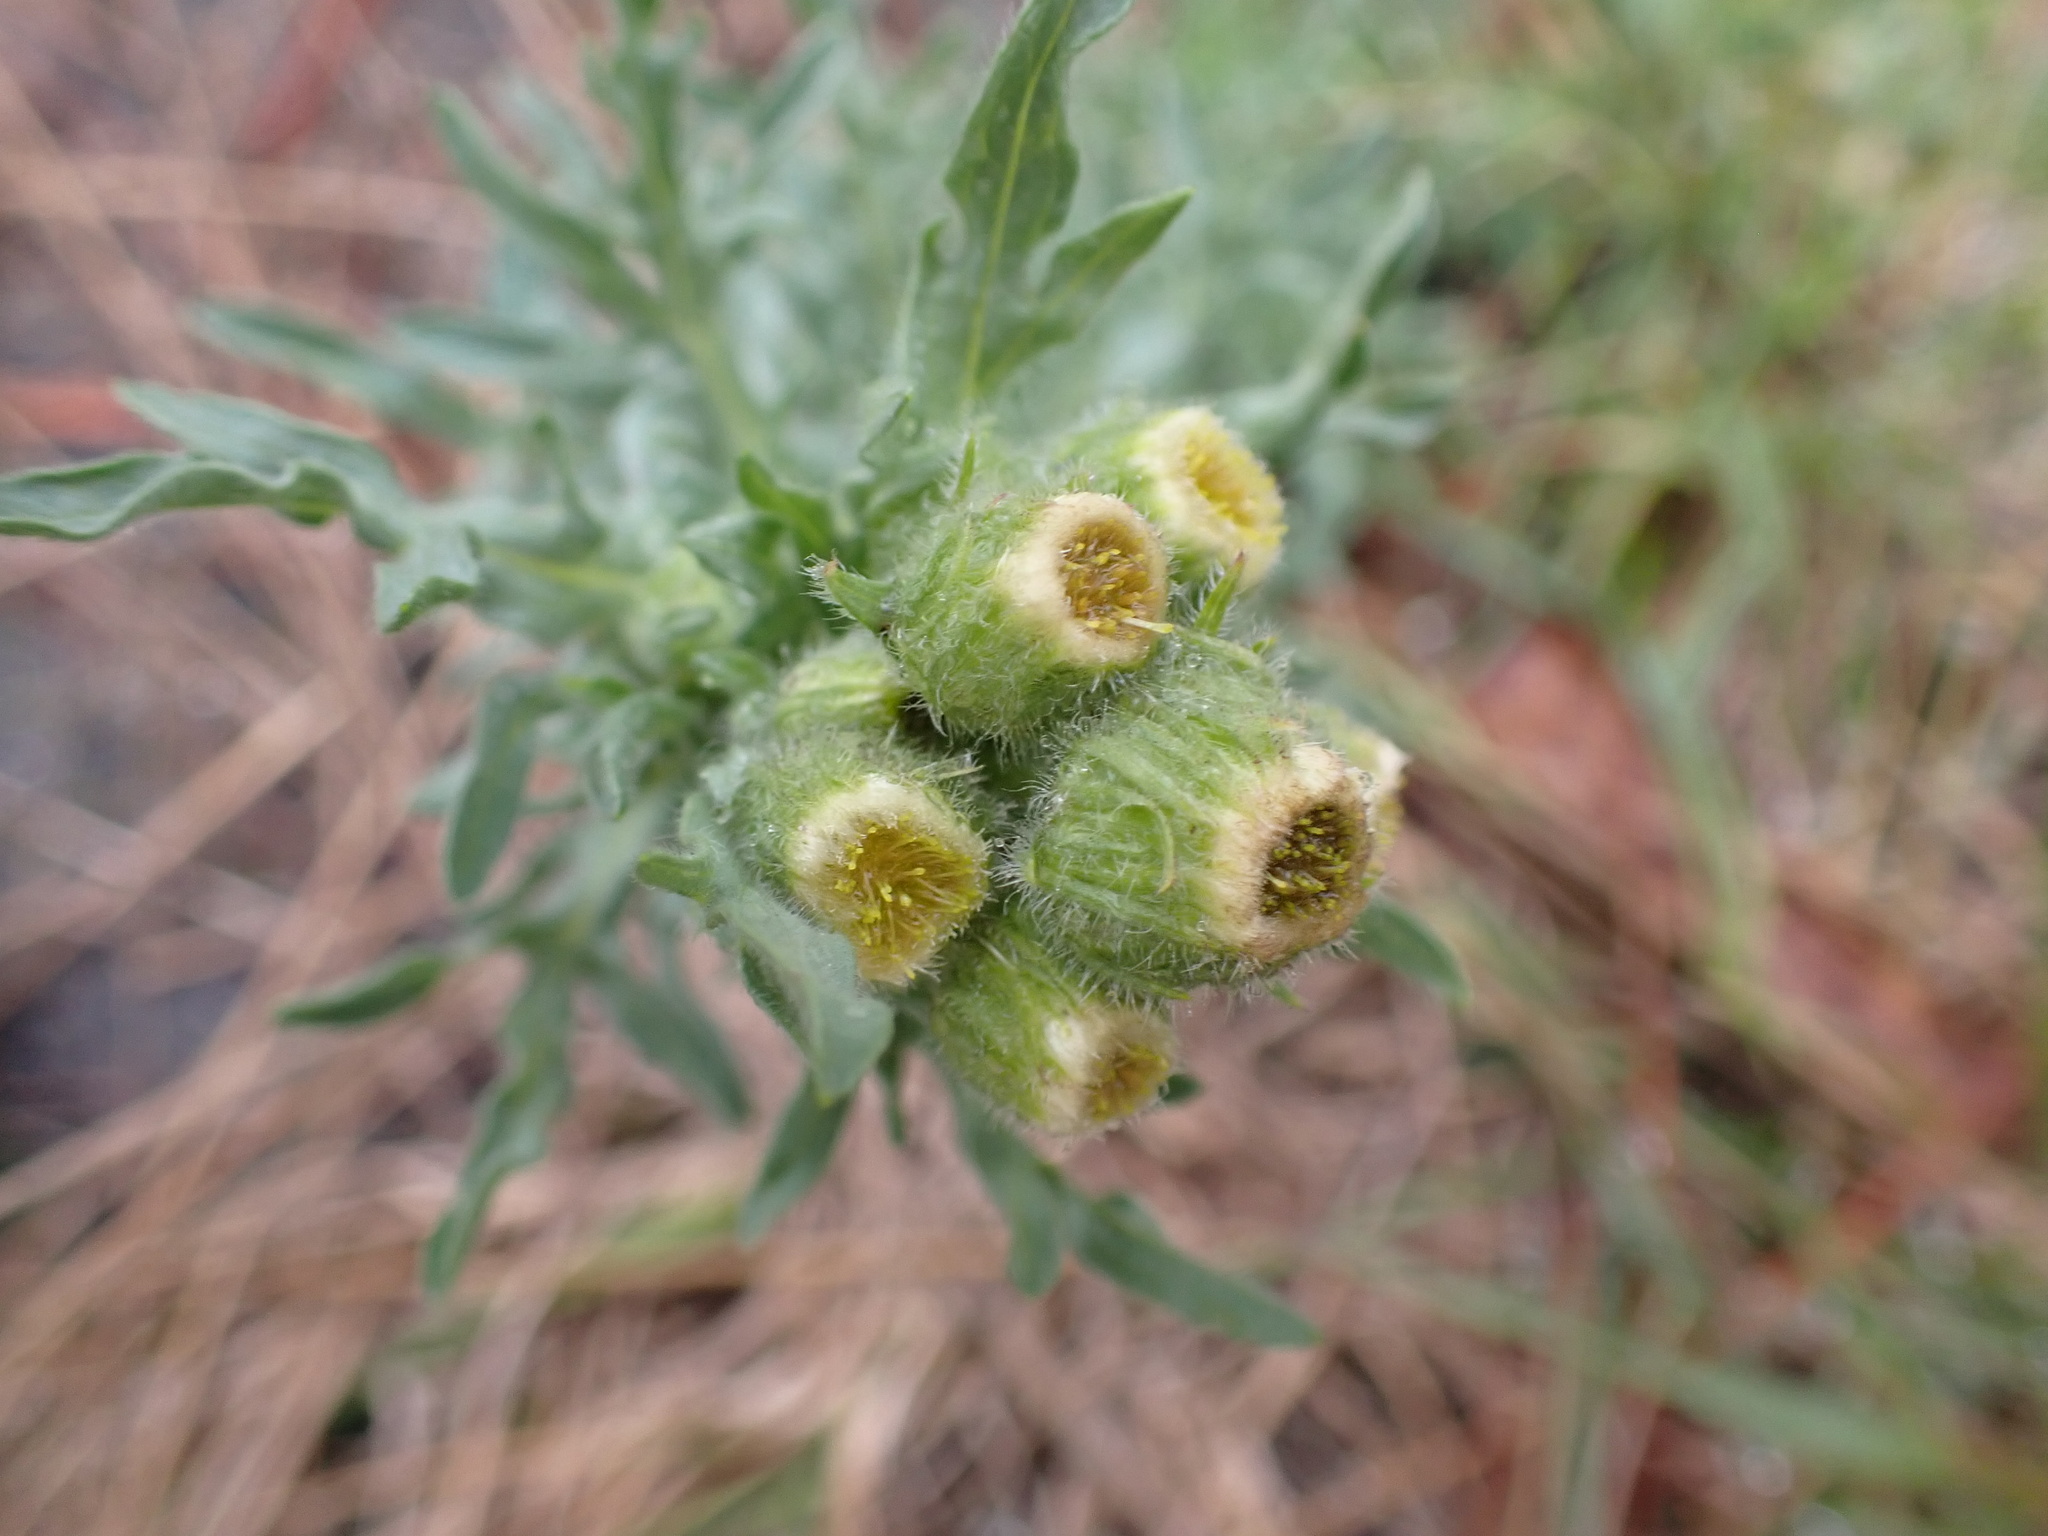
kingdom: Plantae
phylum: Tracheophyta
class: Magnoliopsida
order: Asterales
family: Asteraceae
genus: Erigeron
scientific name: Erigeron bonariensis
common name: Argentine fleabane
